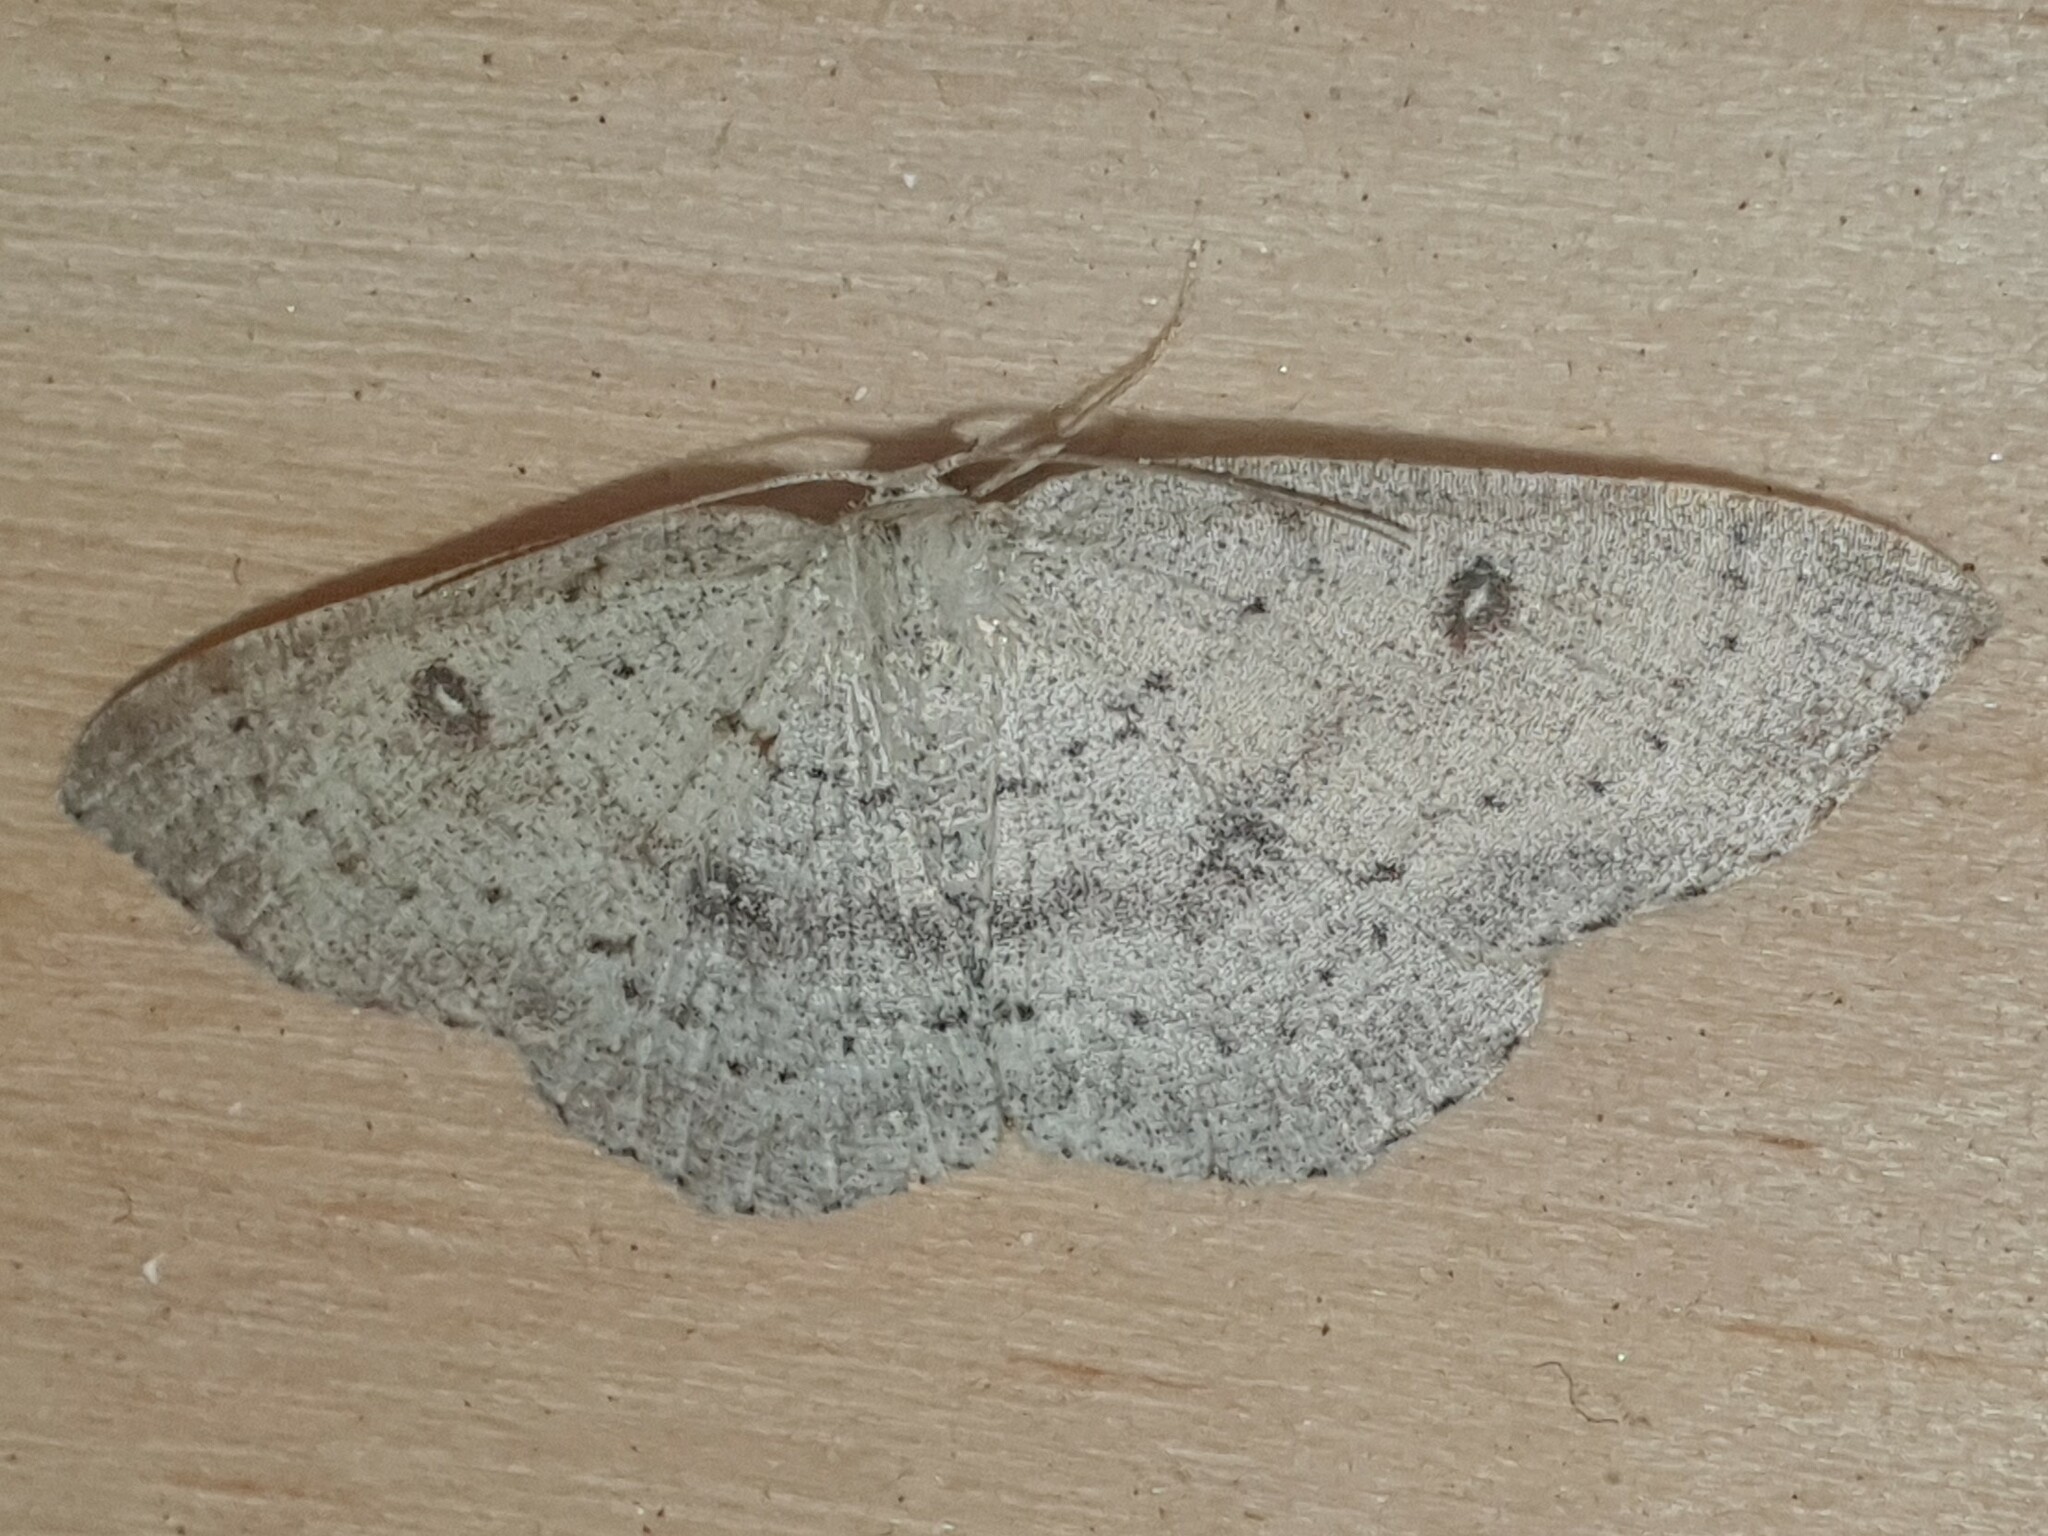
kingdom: Animalia
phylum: Arthropoda
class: Insecta
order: Lepidoptera
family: Geometridae
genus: Cyclophora
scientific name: Cyclophora albipunctata
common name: Birch mocha
